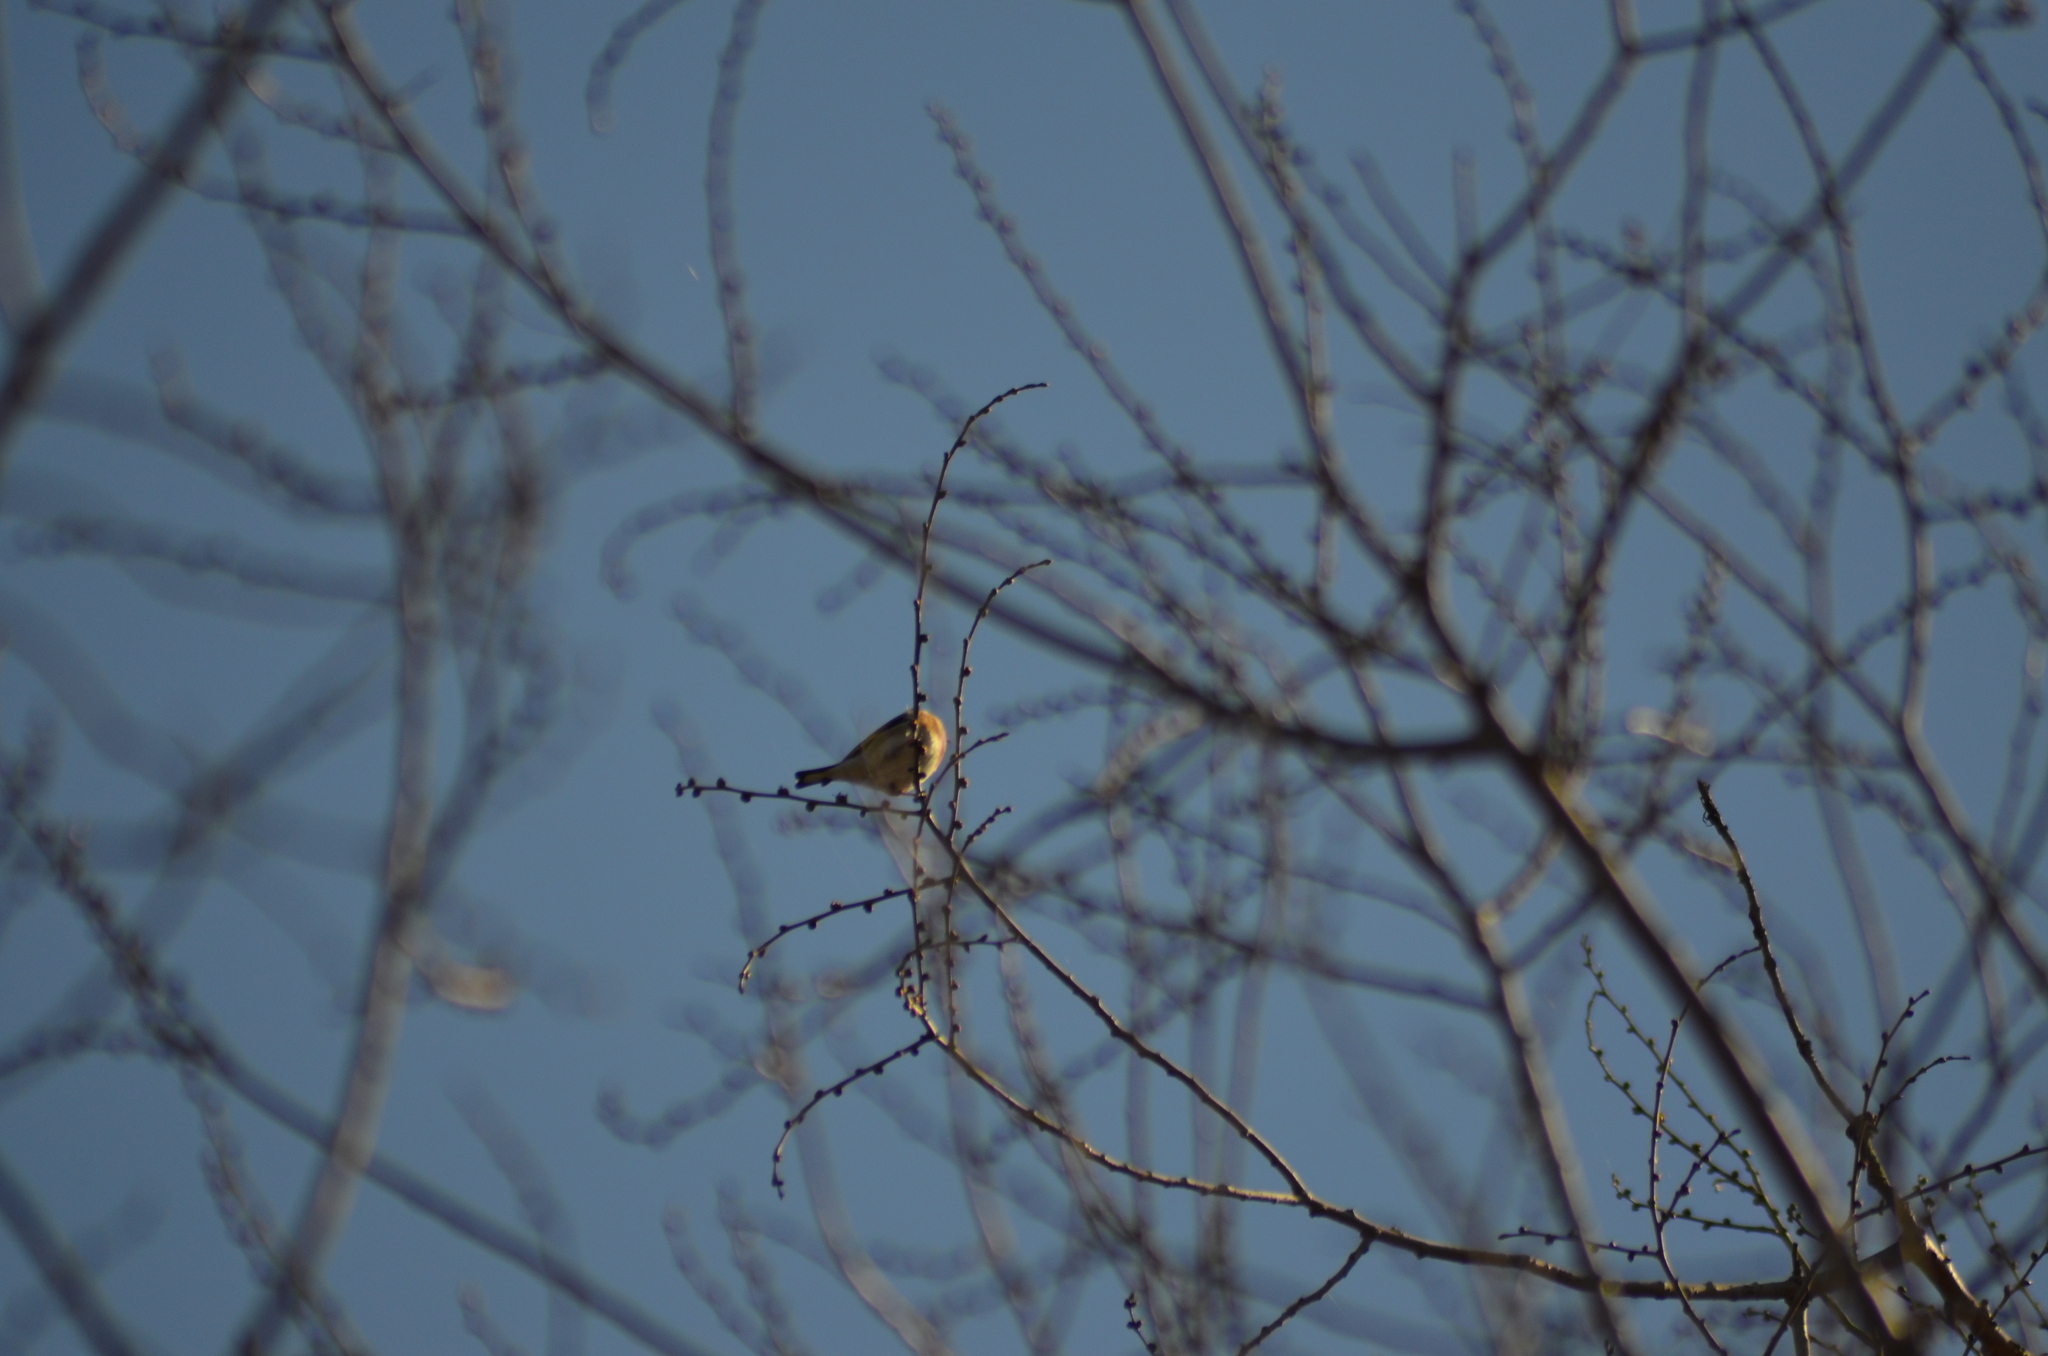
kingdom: Animalia
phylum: Chordata
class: Aves
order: Passeriformes
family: Fringillidae
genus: Carduelis
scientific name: Carduelis carduelis
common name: European goldfinch
